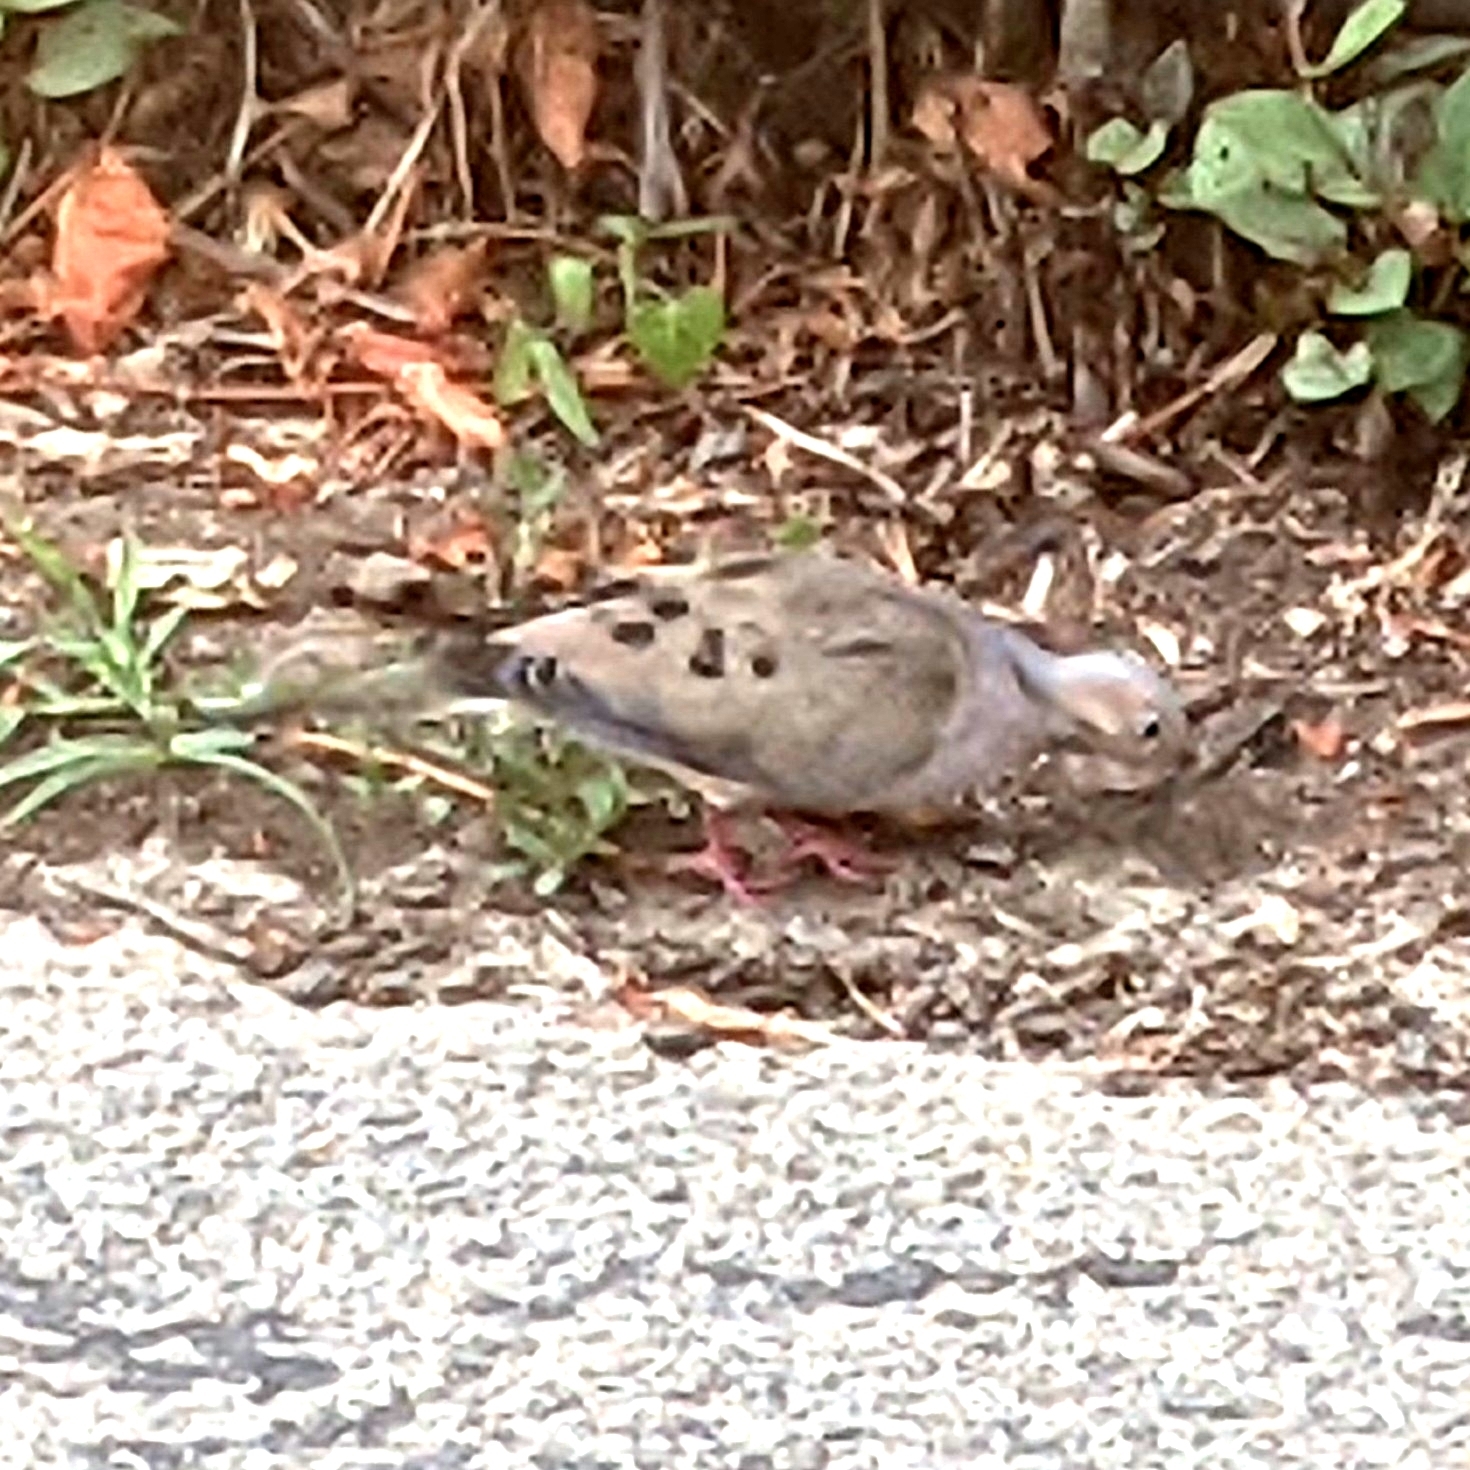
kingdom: Animalia
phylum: Chordata
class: Aves
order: Columbiformes
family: Columbidae
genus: Zenaida
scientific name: Zenaida macroura
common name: Mourning dove
